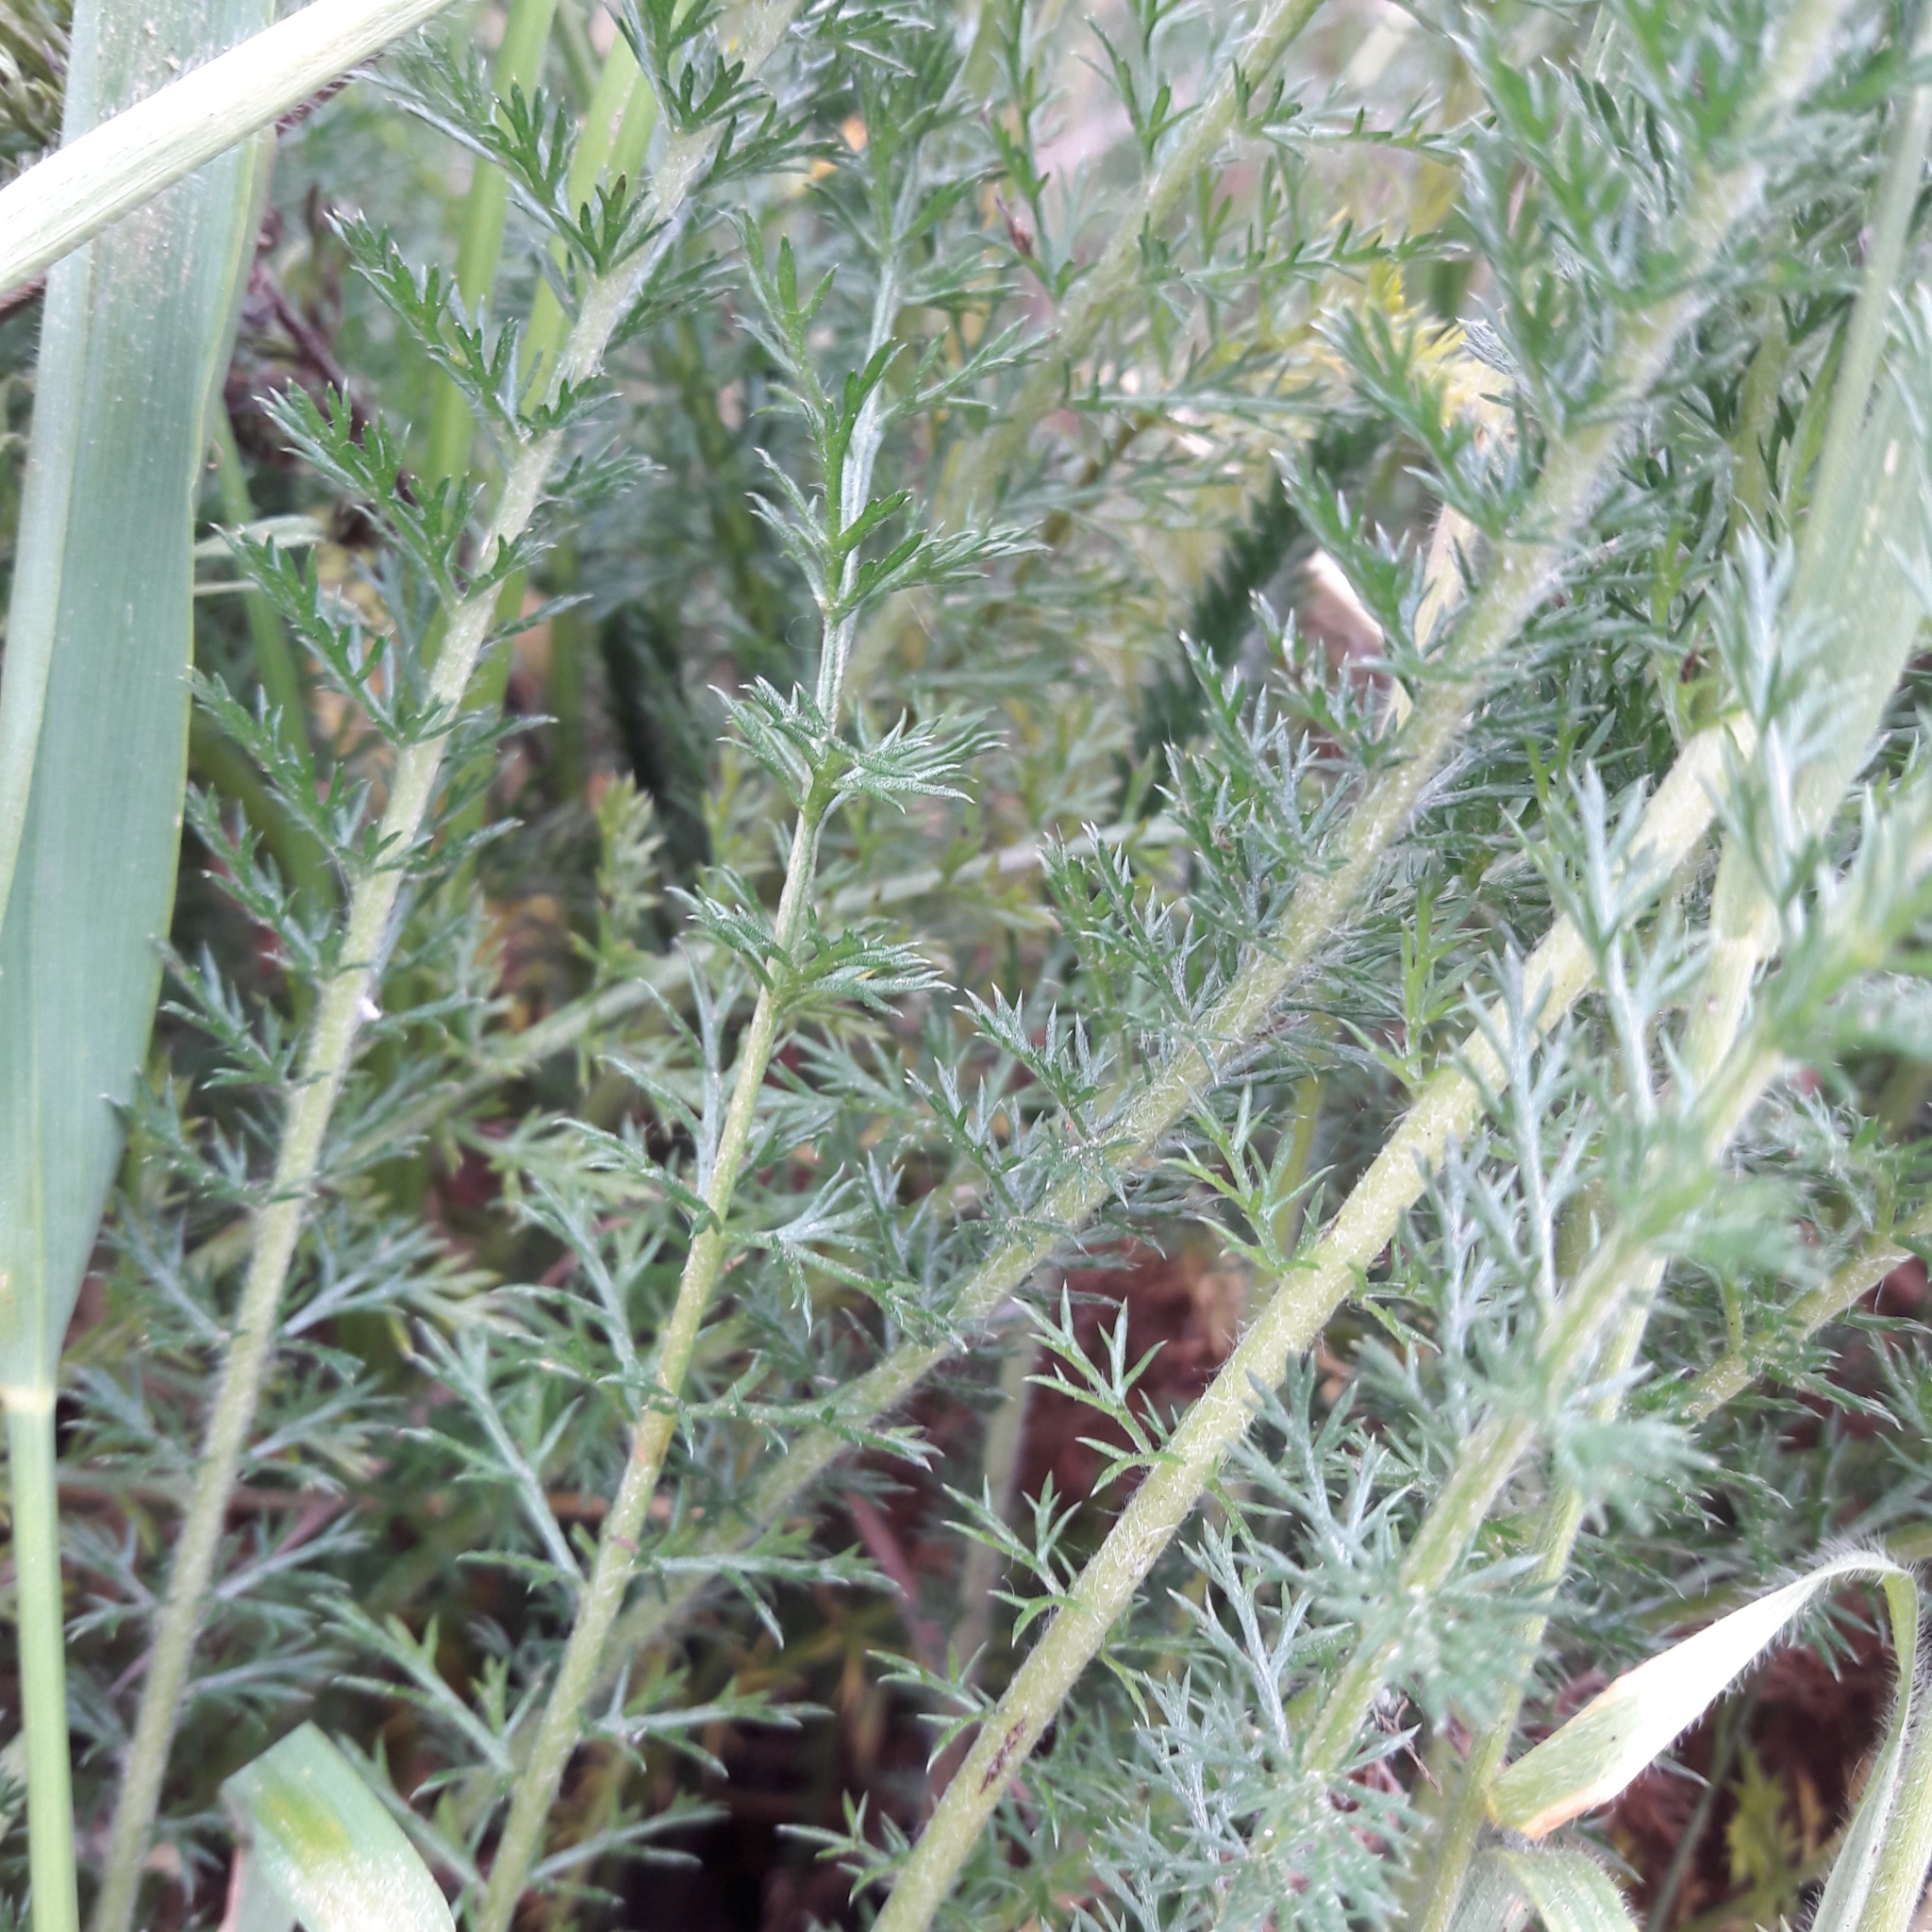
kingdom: Plantae
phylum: Tracheophyta
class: Magnoliopsida
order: Asterales
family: Asteraceae
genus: Achillea
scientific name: Achillea millefolium
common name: Yarrow
